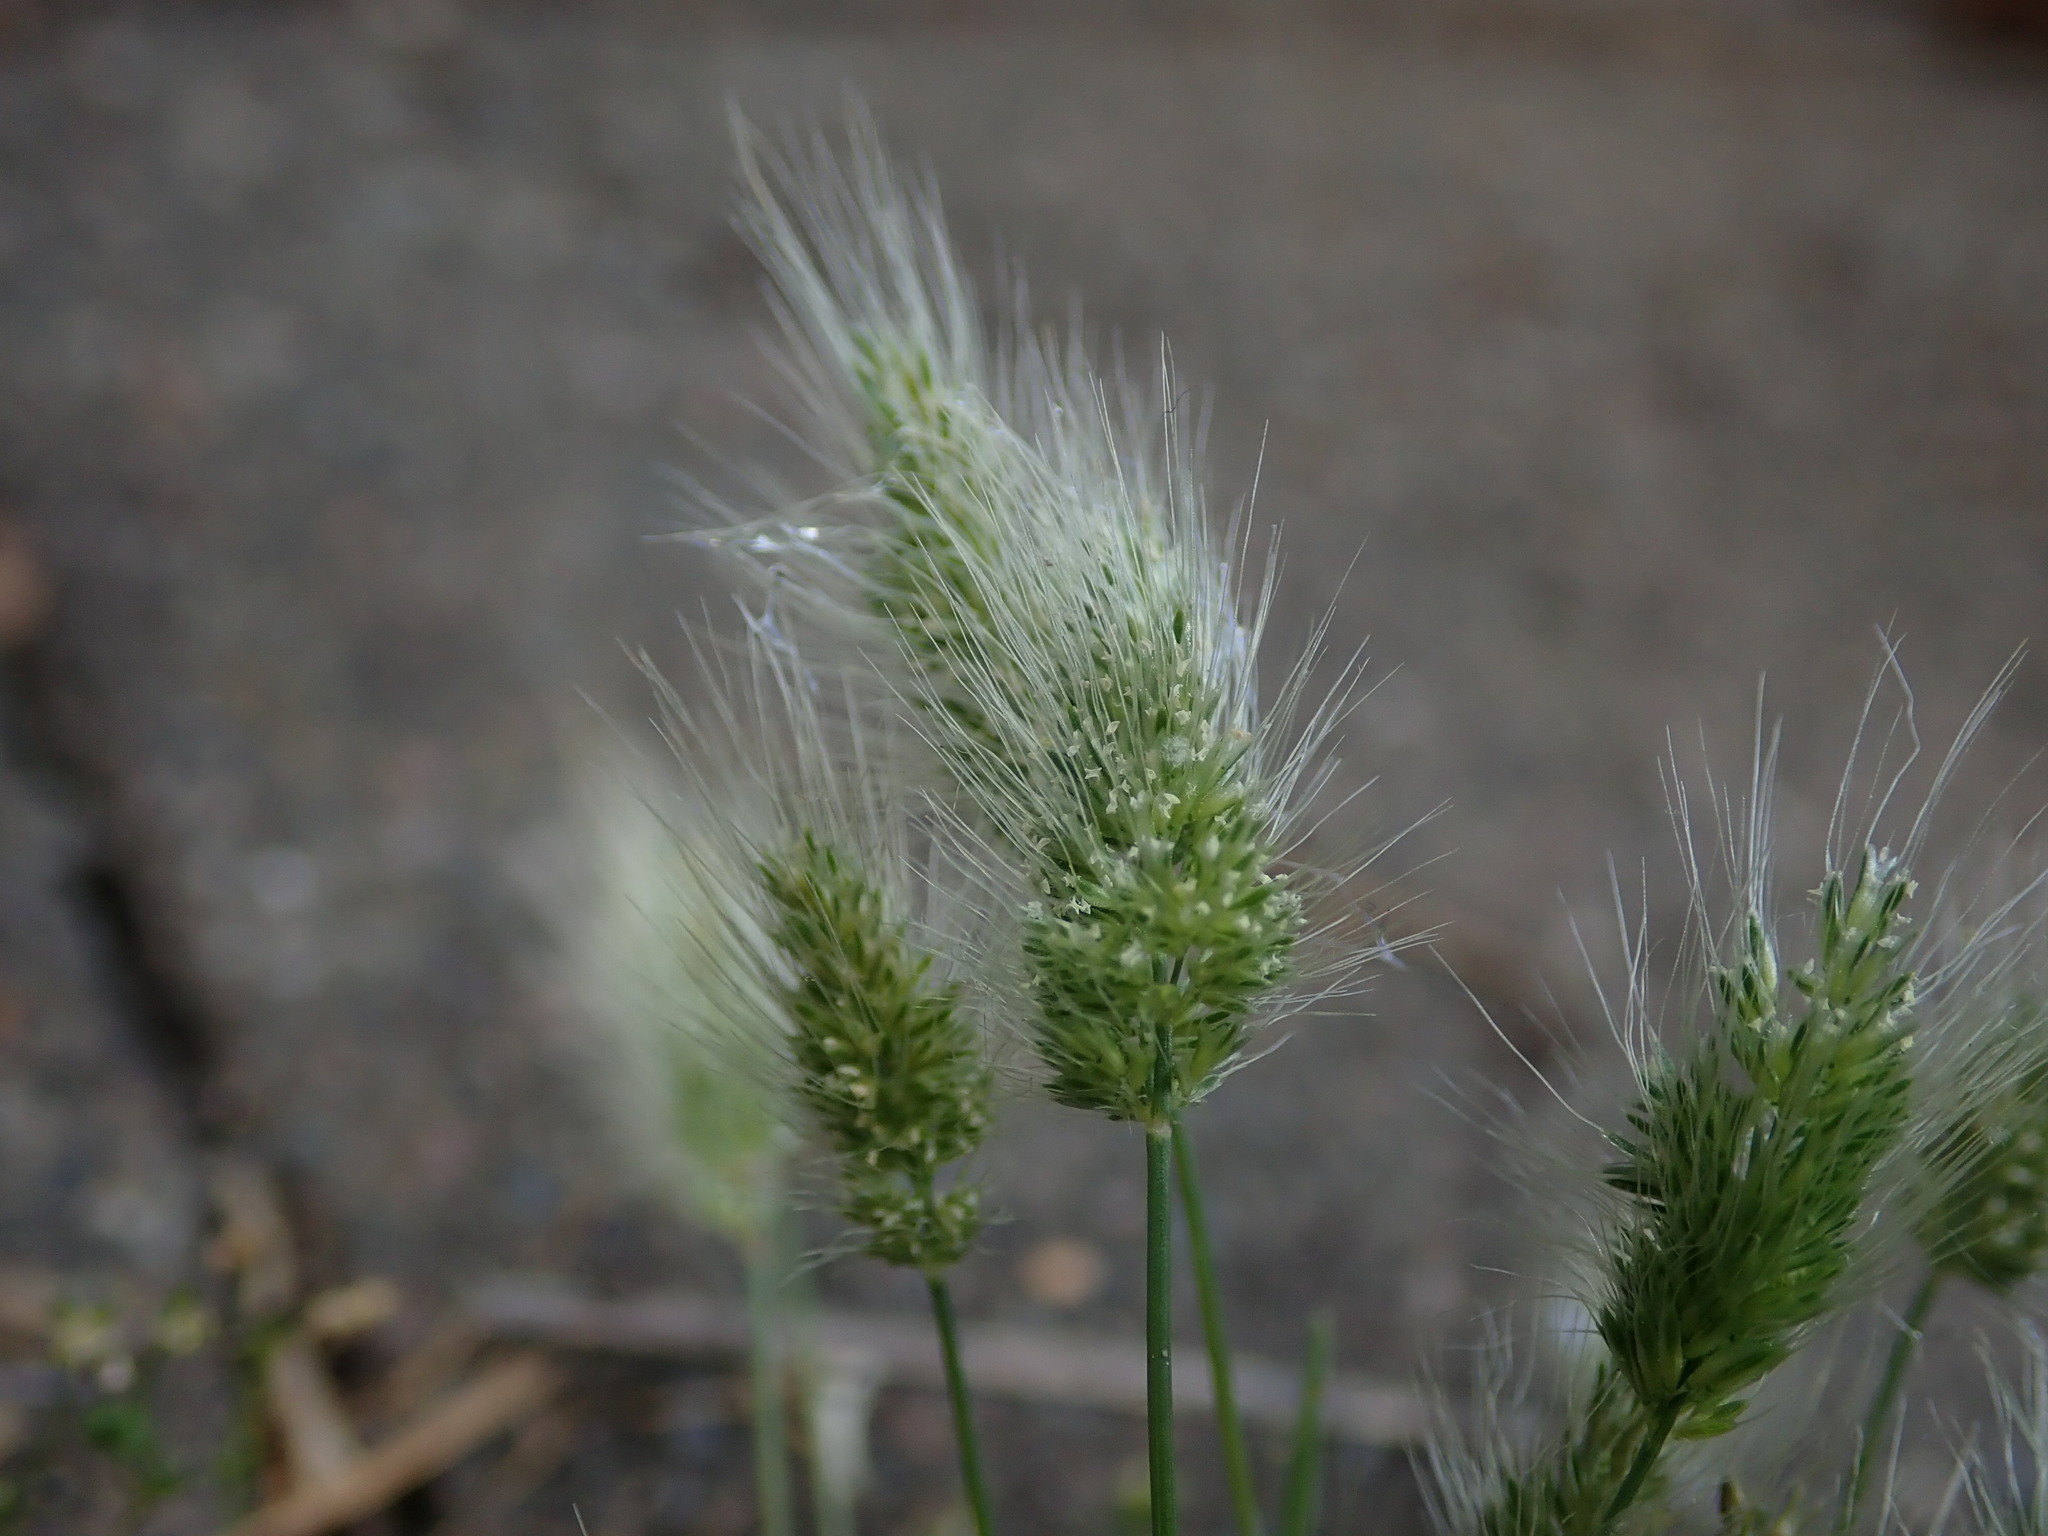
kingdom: Plantae
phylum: Tracheophyta
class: Liliopsida
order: Poales
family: Poaceae
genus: Polypogon
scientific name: Polypogon monspeliensis
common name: Annual rabbitsfoot grass
